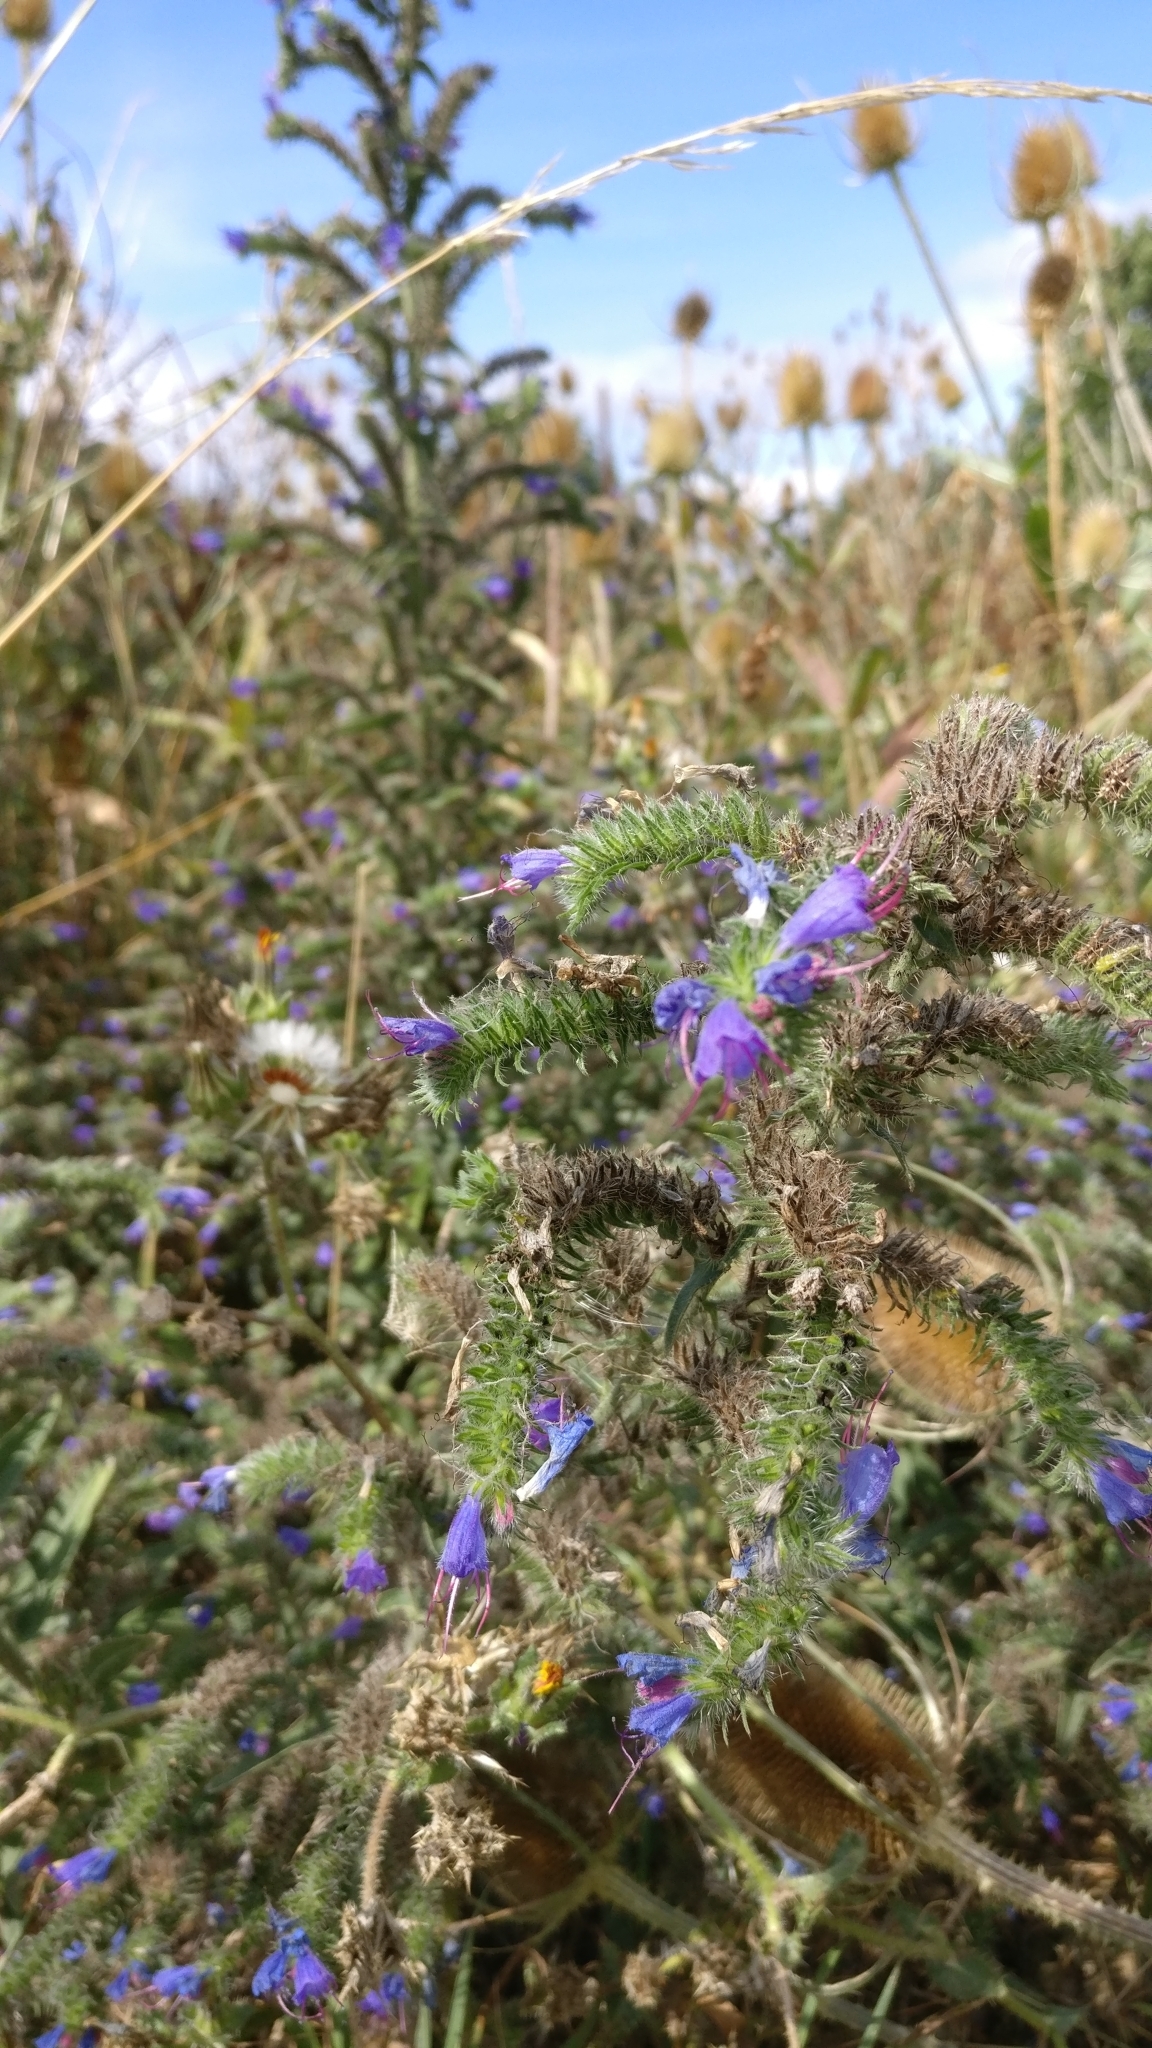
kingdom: Plantae
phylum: Tracheophyta
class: Magnoliopsida
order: Boraginales
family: Boraginaceae
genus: Echium
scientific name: Echium vulgare
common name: Common viper's bugloss
